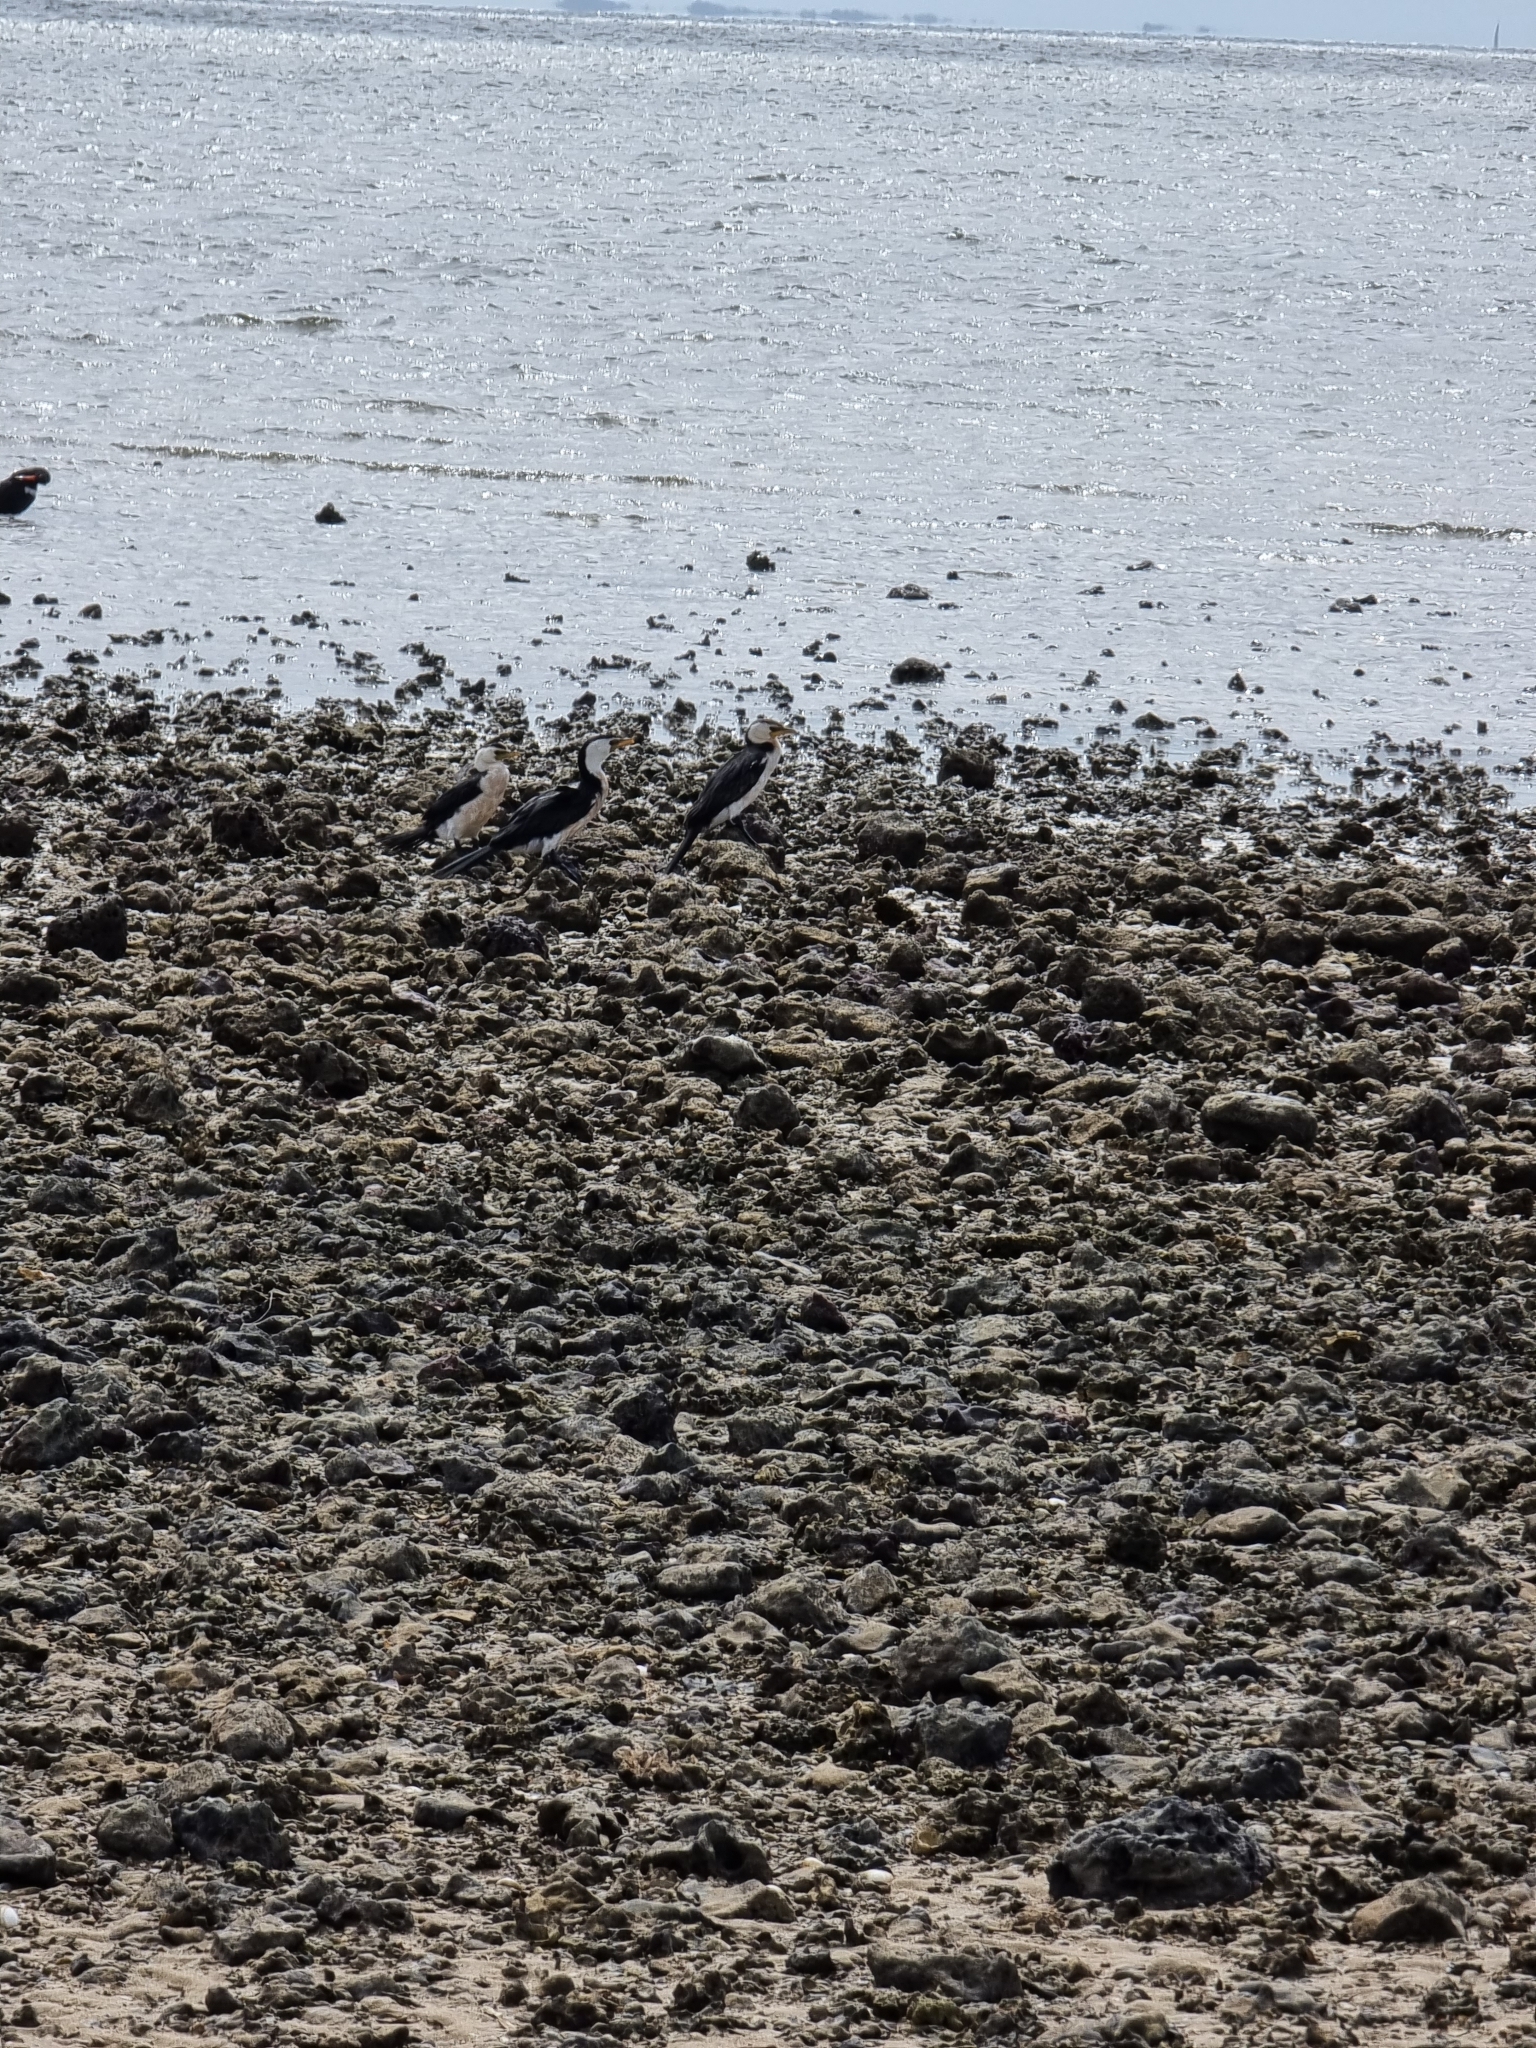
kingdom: Animalia
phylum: Chordata
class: Aves
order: Suliformes
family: Phalacrocoracidae
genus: Microcarbo
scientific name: Microcarbo melanoleucos
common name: Little pied cormorant
